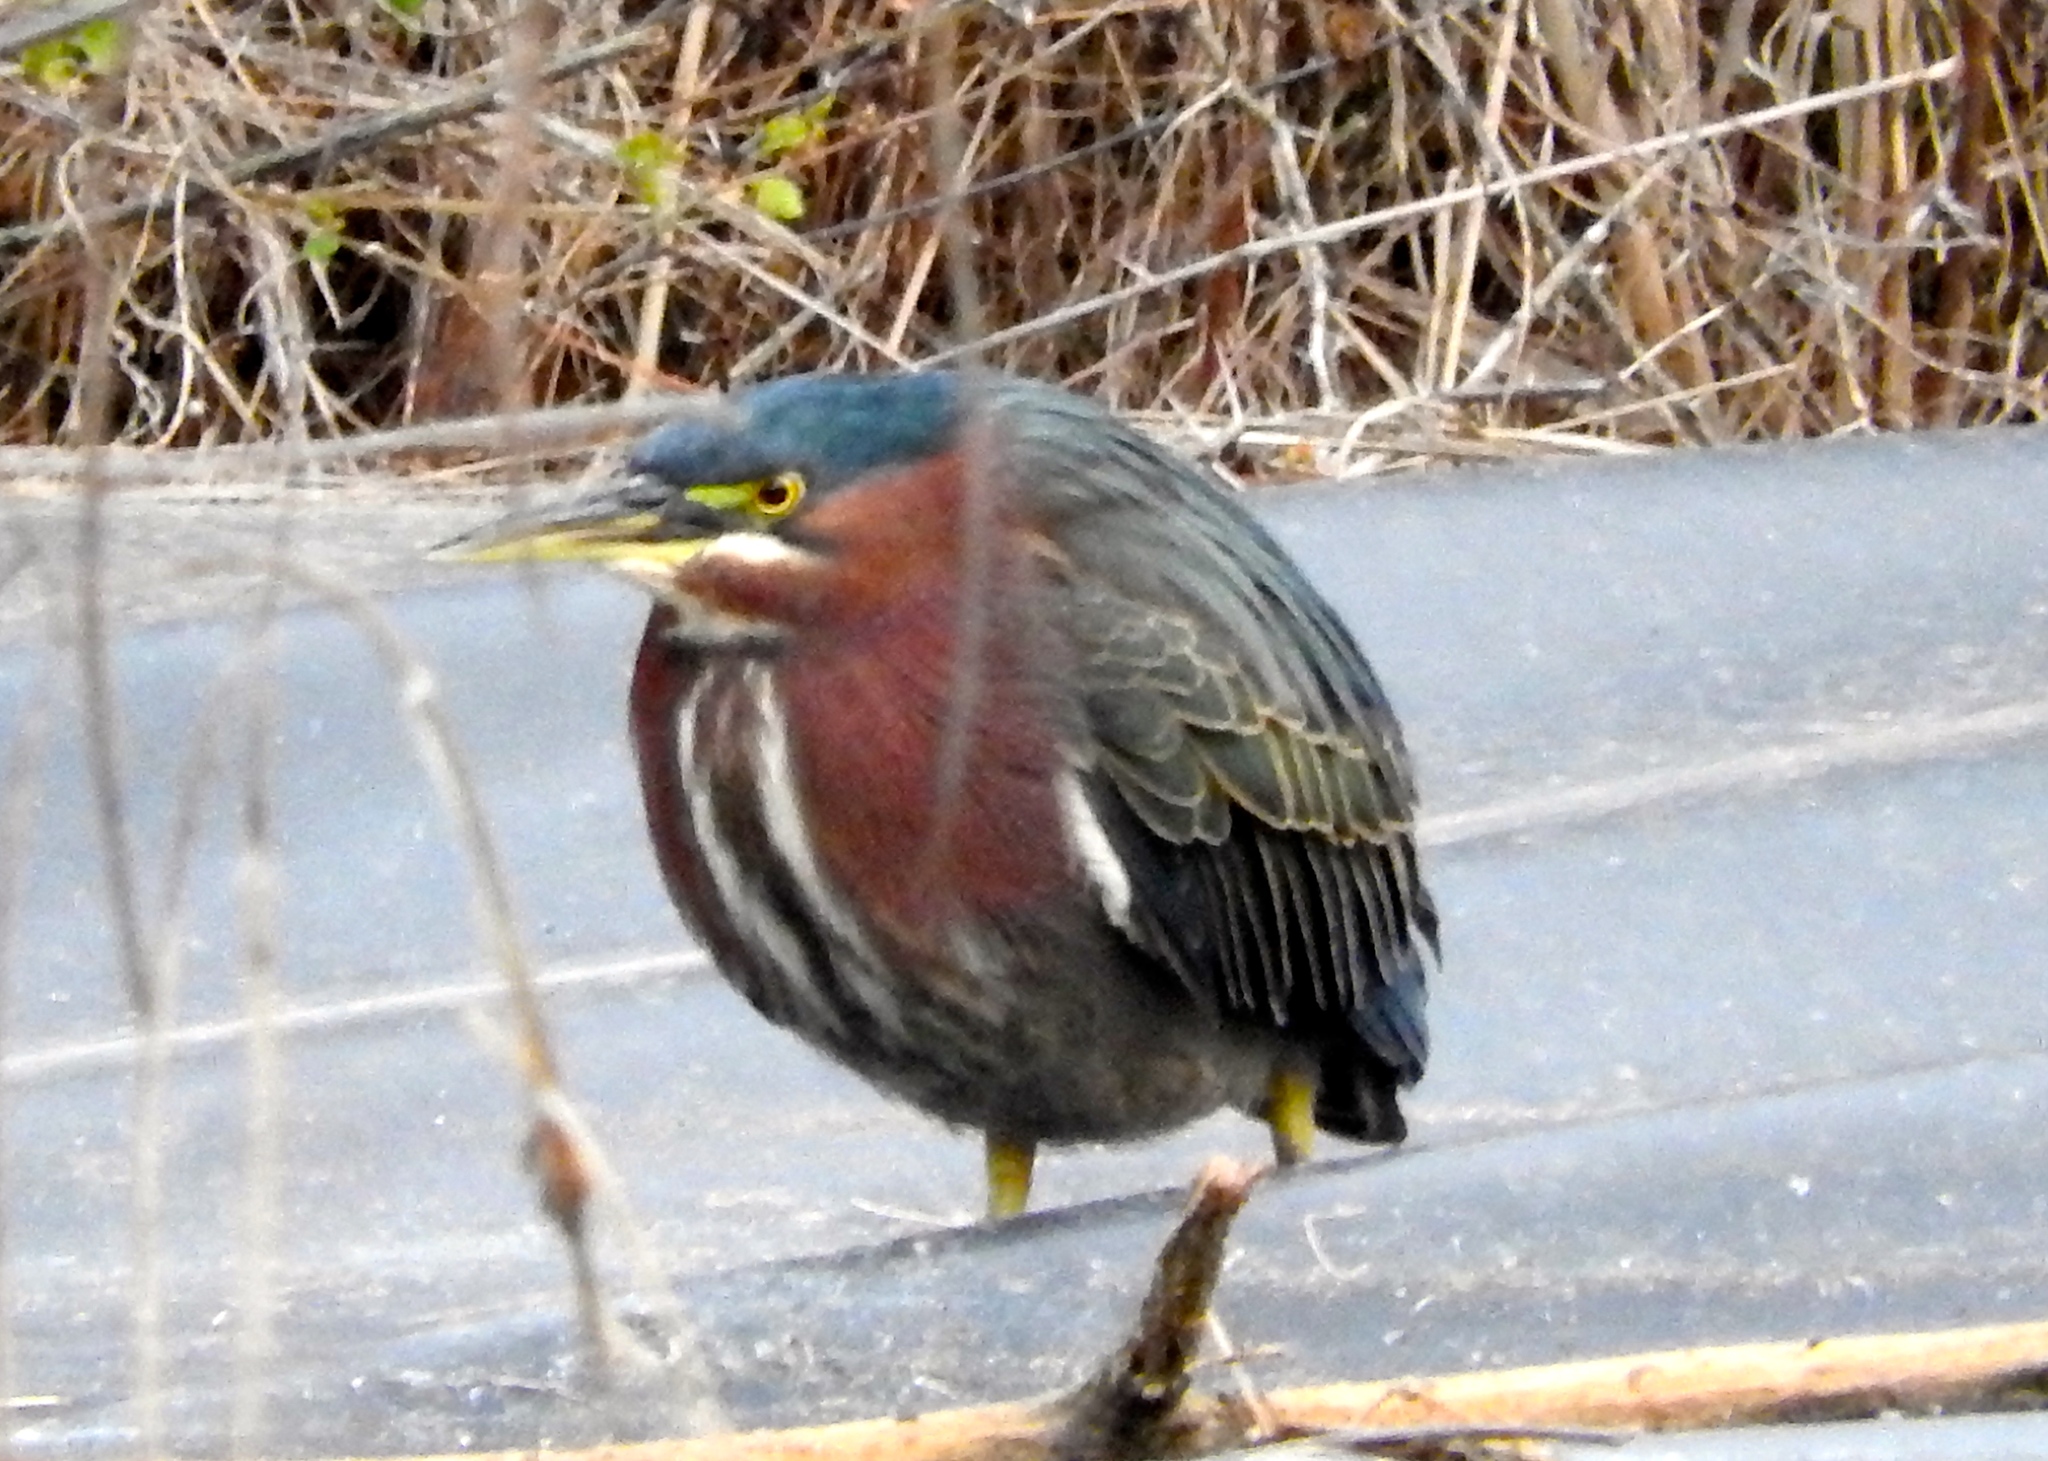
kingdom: Animalia
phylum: Chordata
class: Aves
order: Pelecaniformes
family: Ardeidae
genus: Butorides
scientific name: Butorides virescens
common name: Green heron
